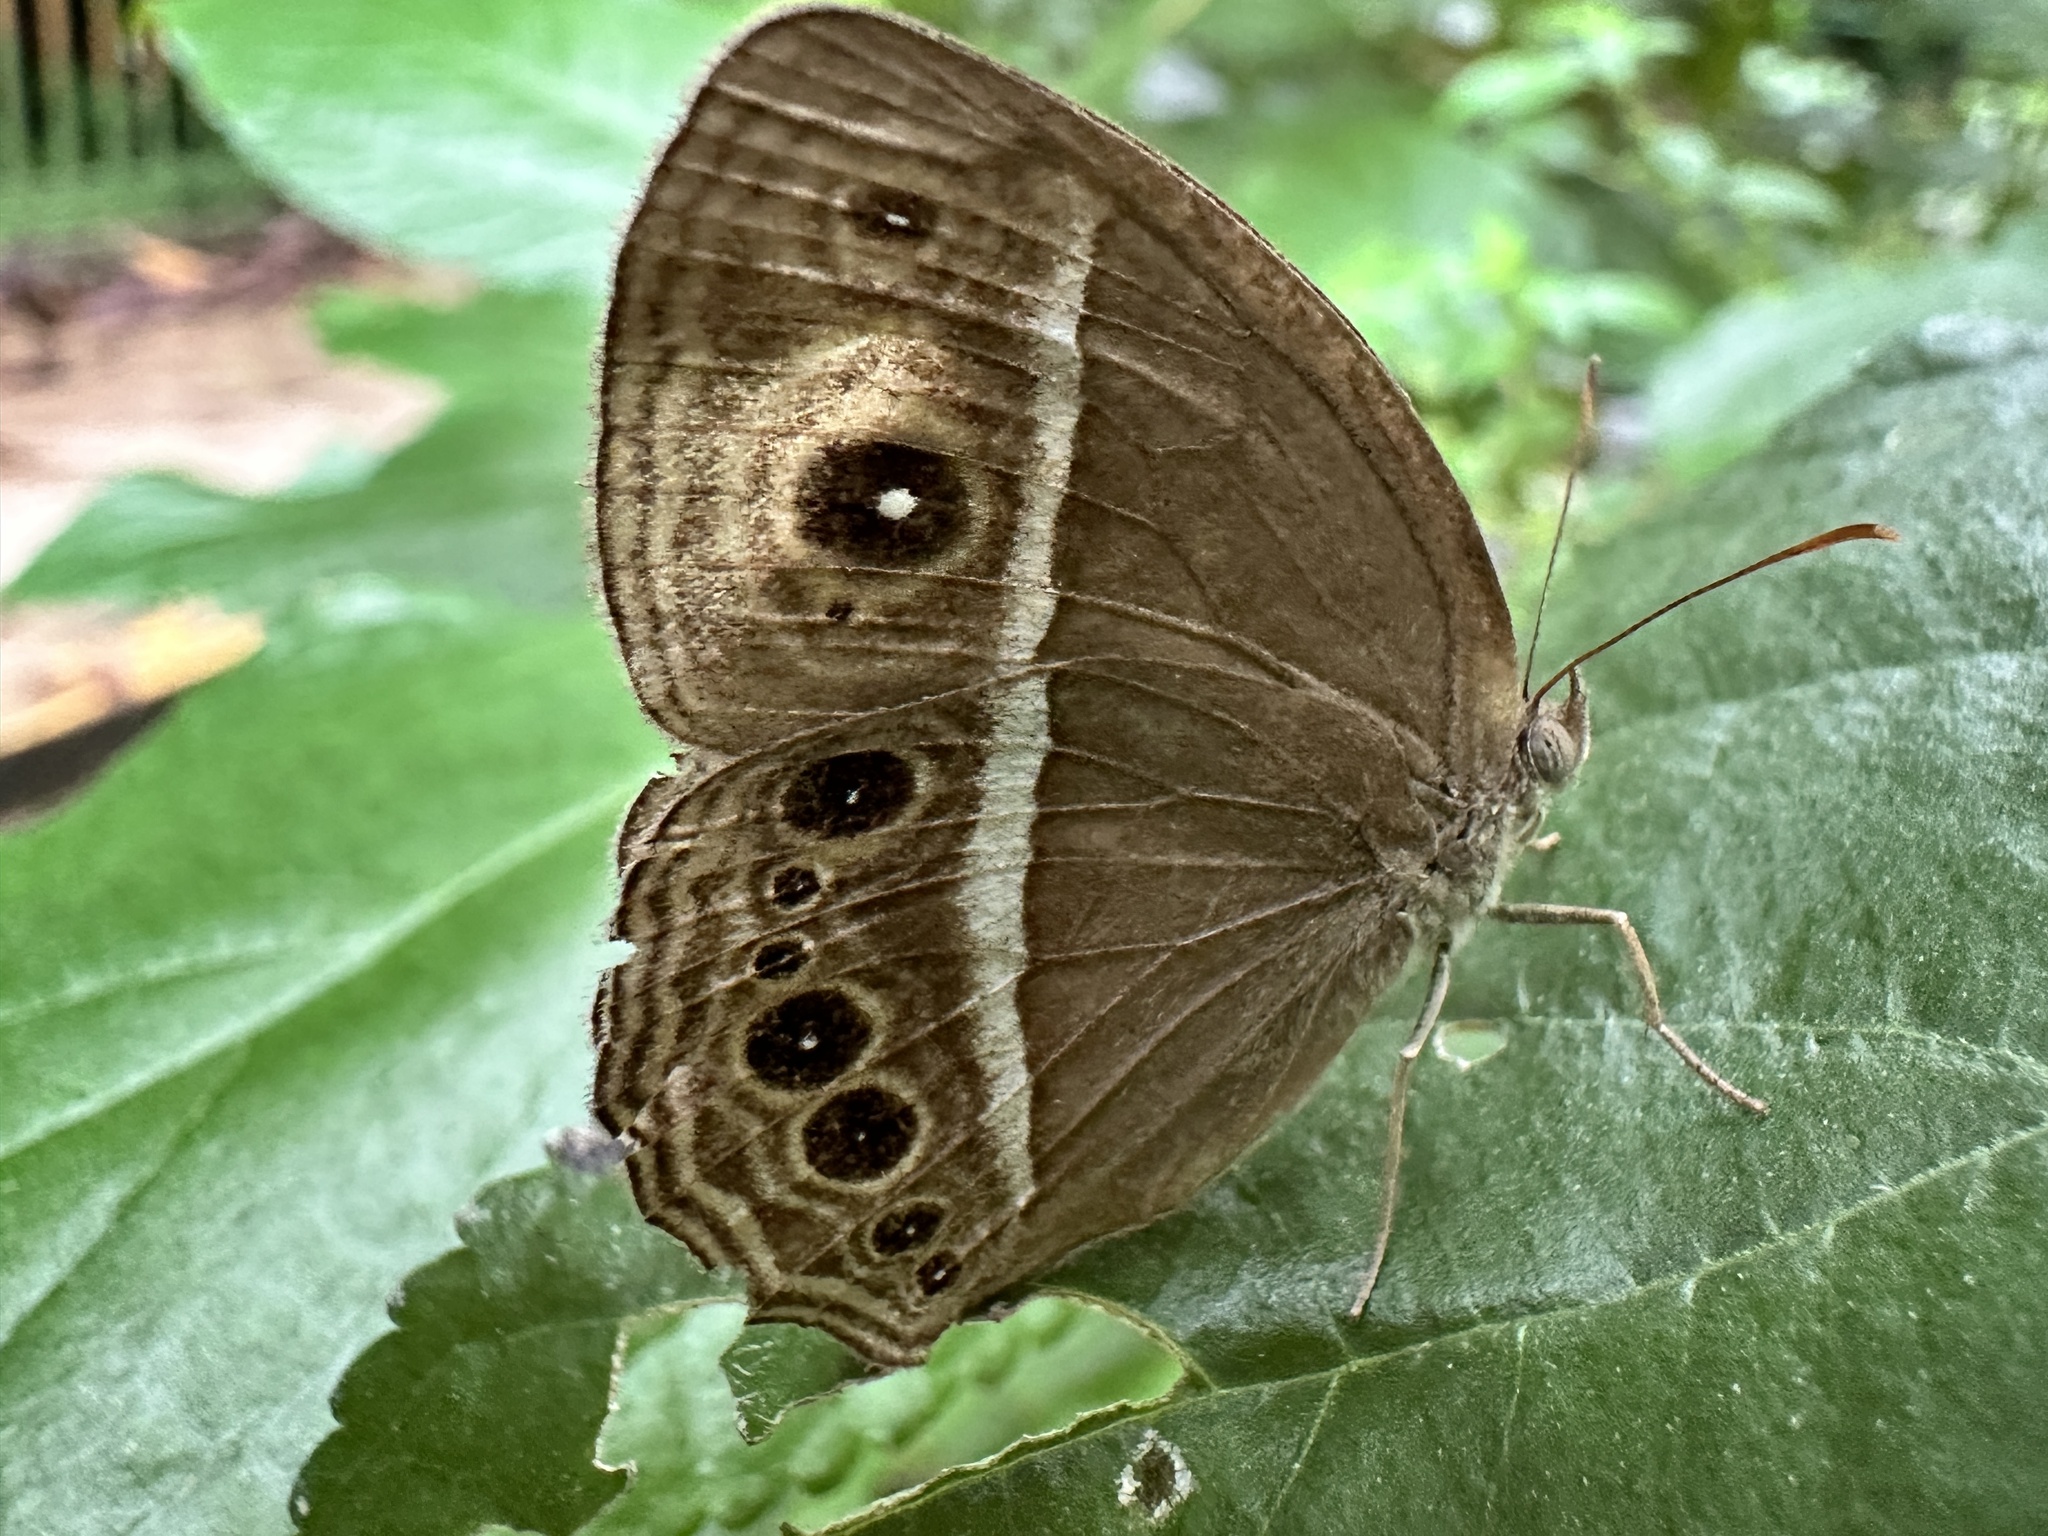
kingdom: Animalia
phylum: Arthropoda
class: Insecta
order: Lepidoptera
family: Nymphalidae
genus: Mycalesis
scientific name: Mycalesis mineus
